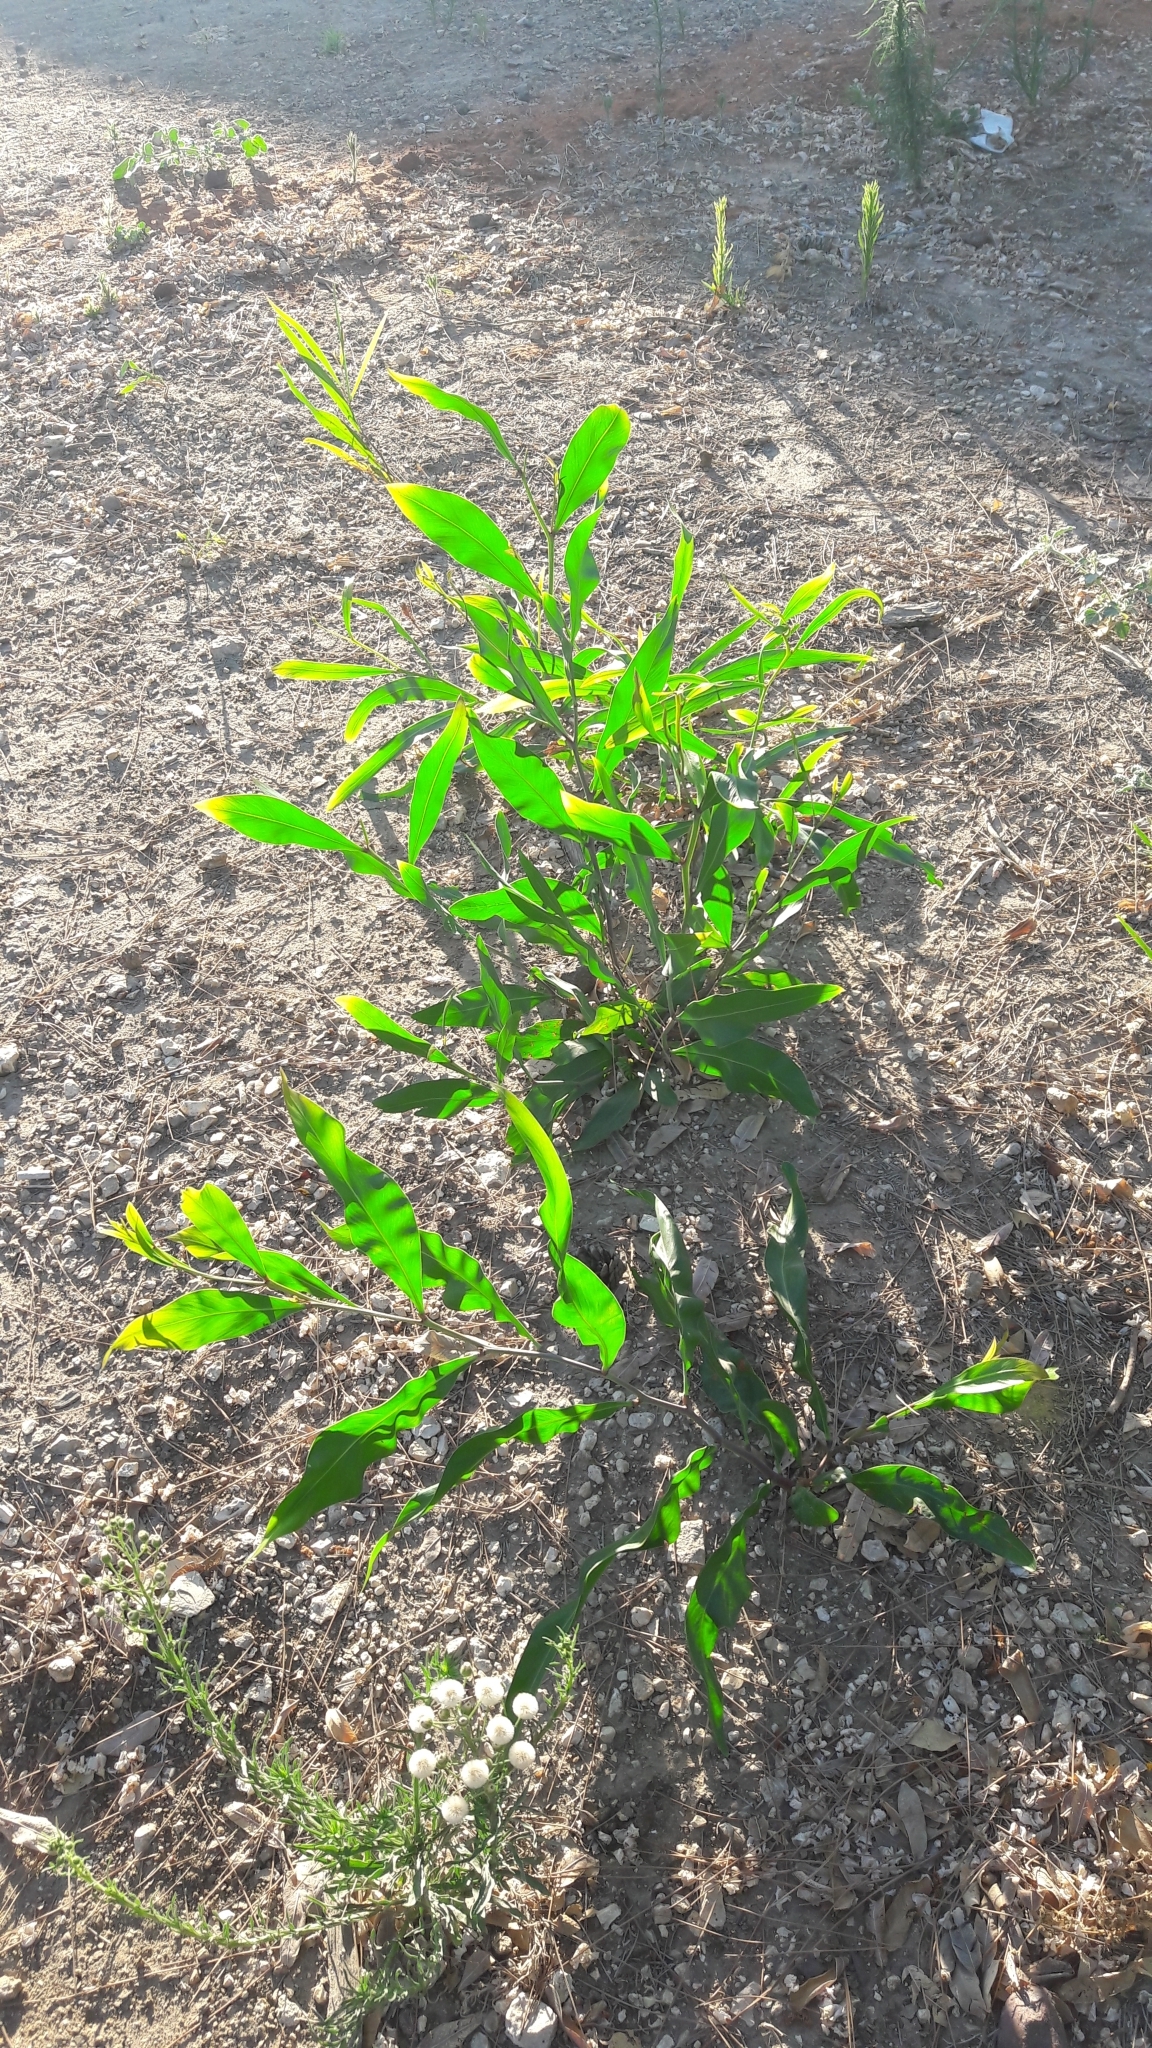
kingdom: Plantae
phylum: Tracheophyta
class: Magnoliopsida
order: Fabales
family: Fabaceae
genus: Acacia
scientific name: Acacia saligna
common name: Orange wattle
